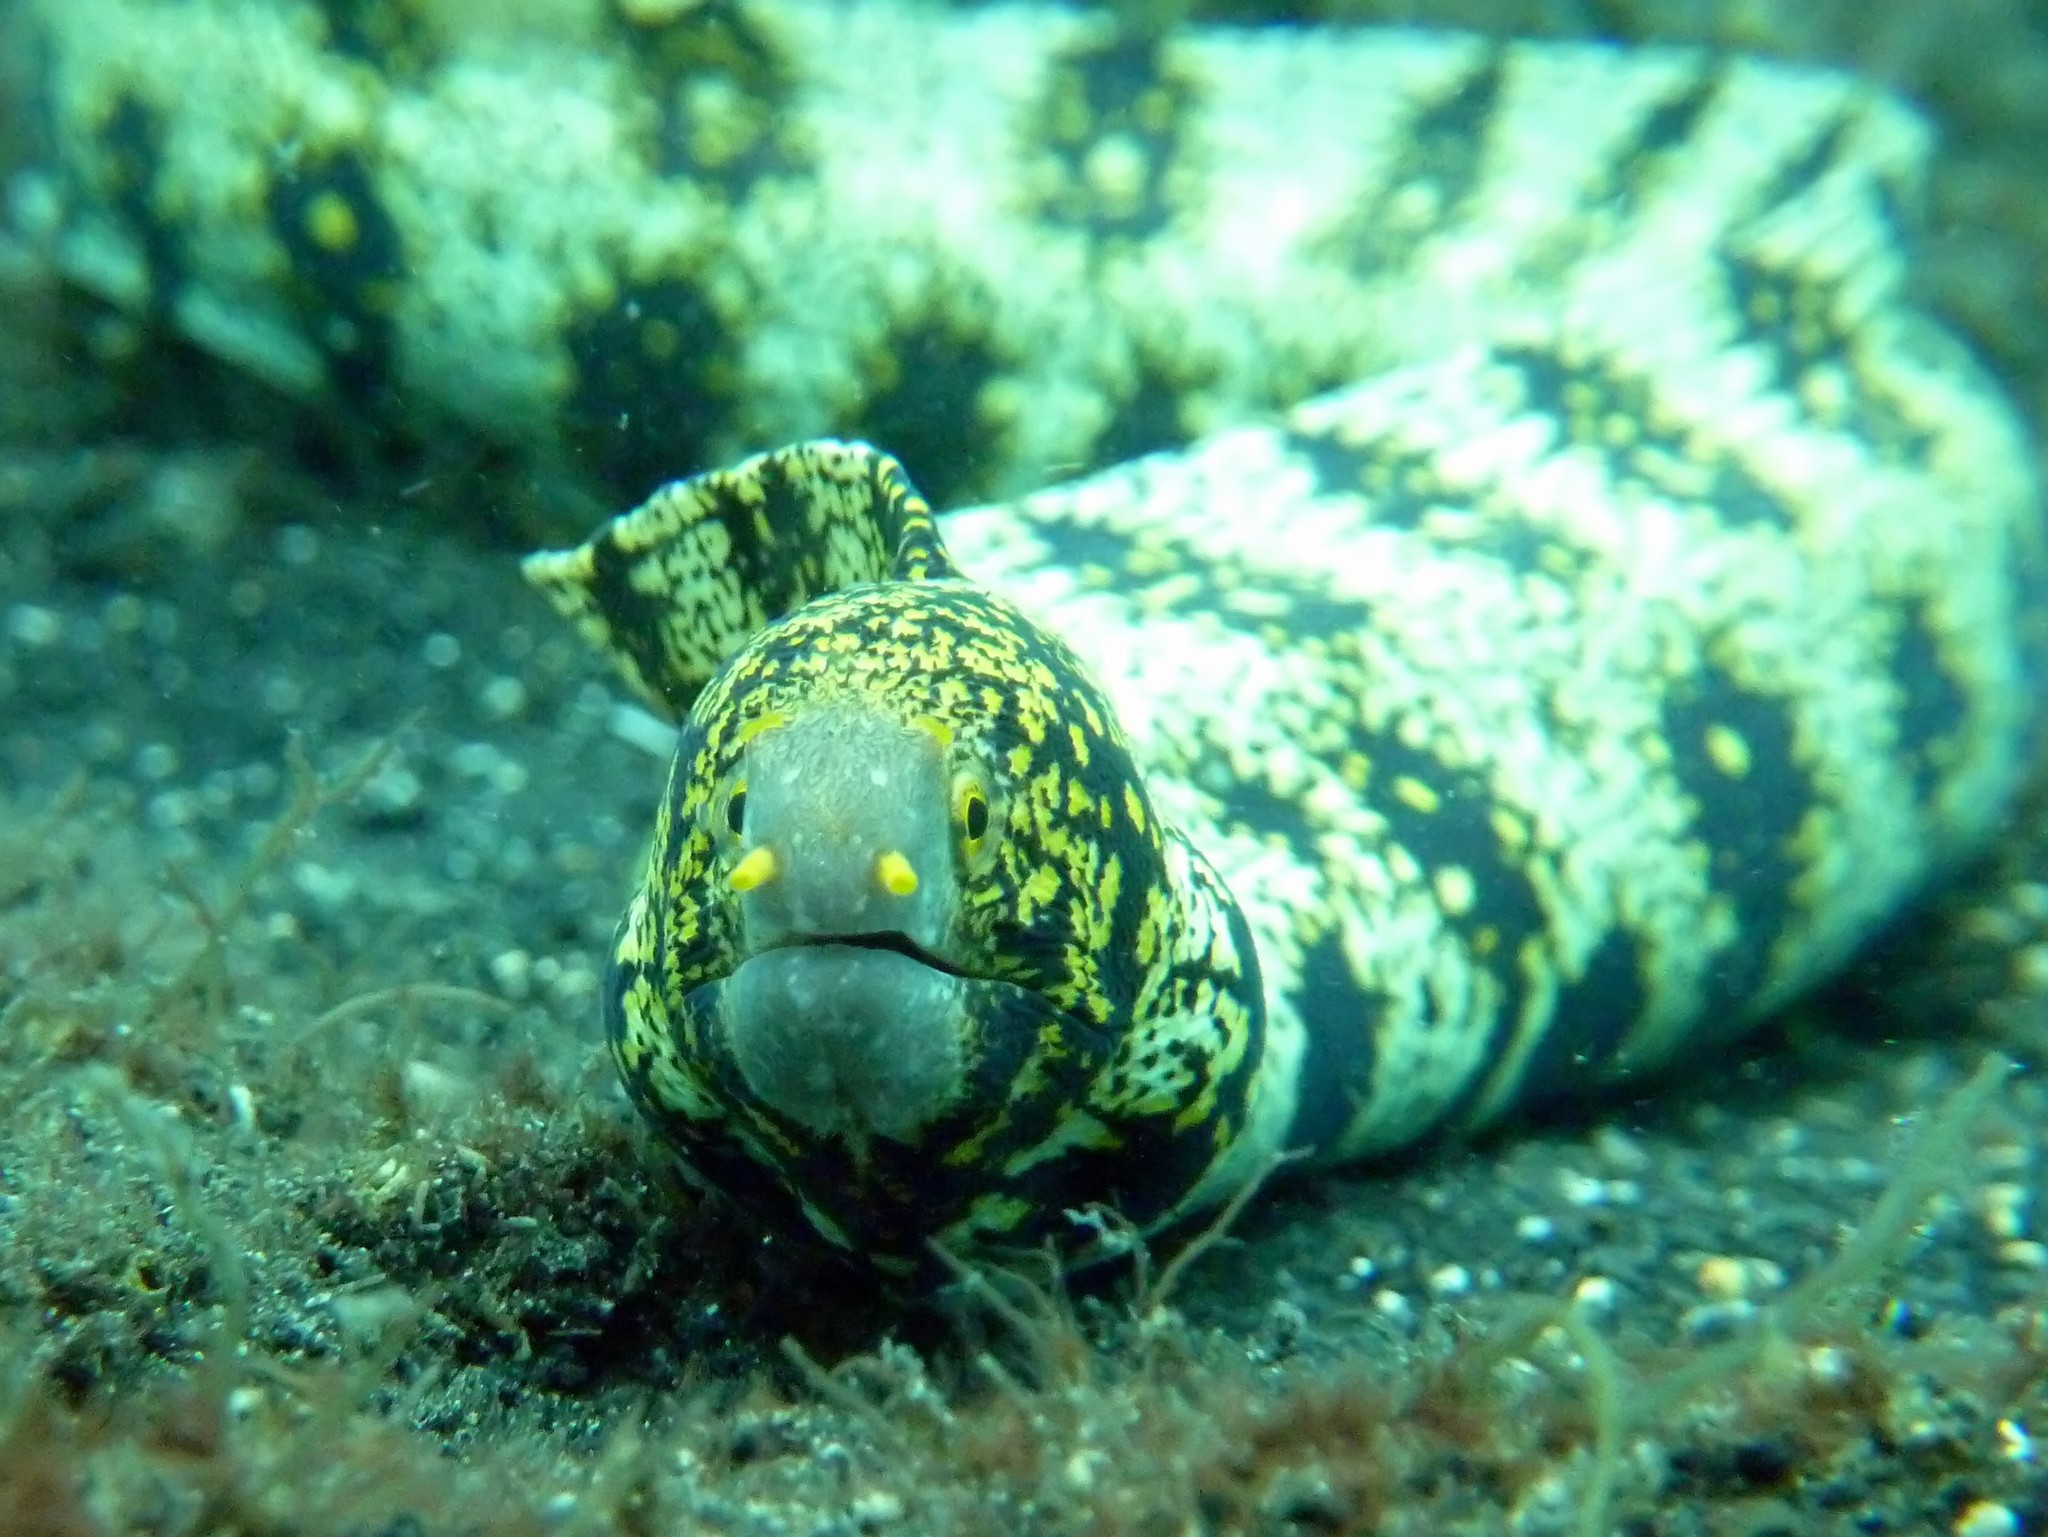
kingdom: Animalia
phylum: Chordata
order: Anguilliformes
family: Muraenidae
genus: Echidna
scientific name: Echidna nebulosa
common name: Snowflake moray
